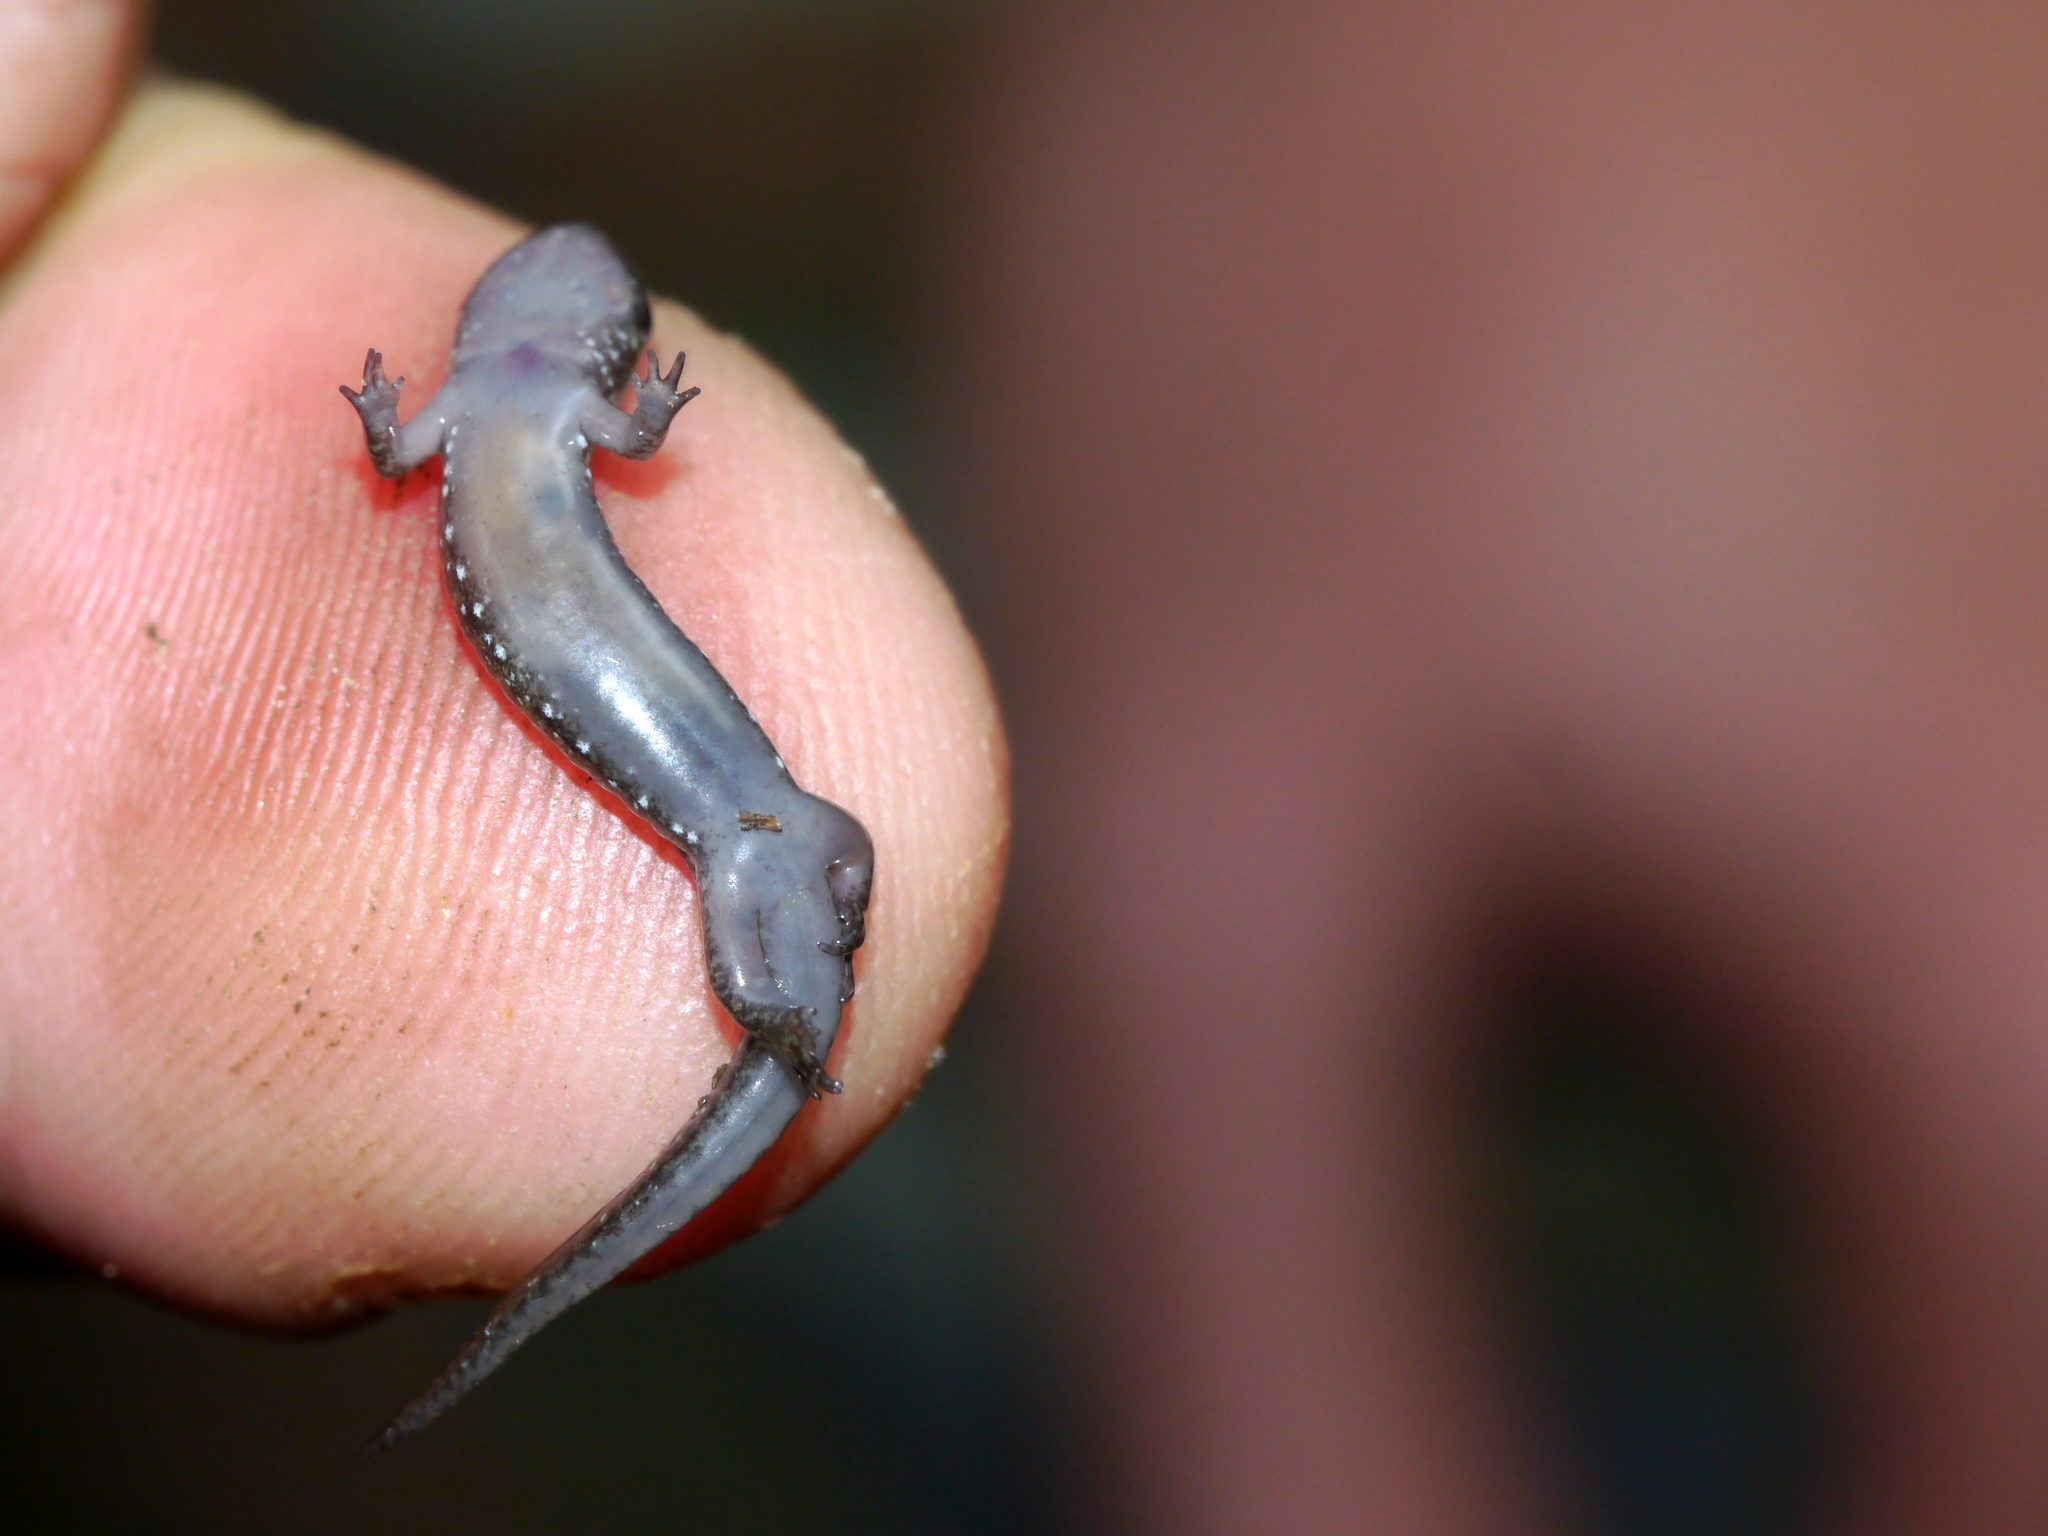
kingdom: Animalia
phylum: Chordata
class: Amphibia
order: Caudata
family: Plethodontidae
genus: Desmognathus
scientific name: Desmognathus monticola
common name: Seal salamander
